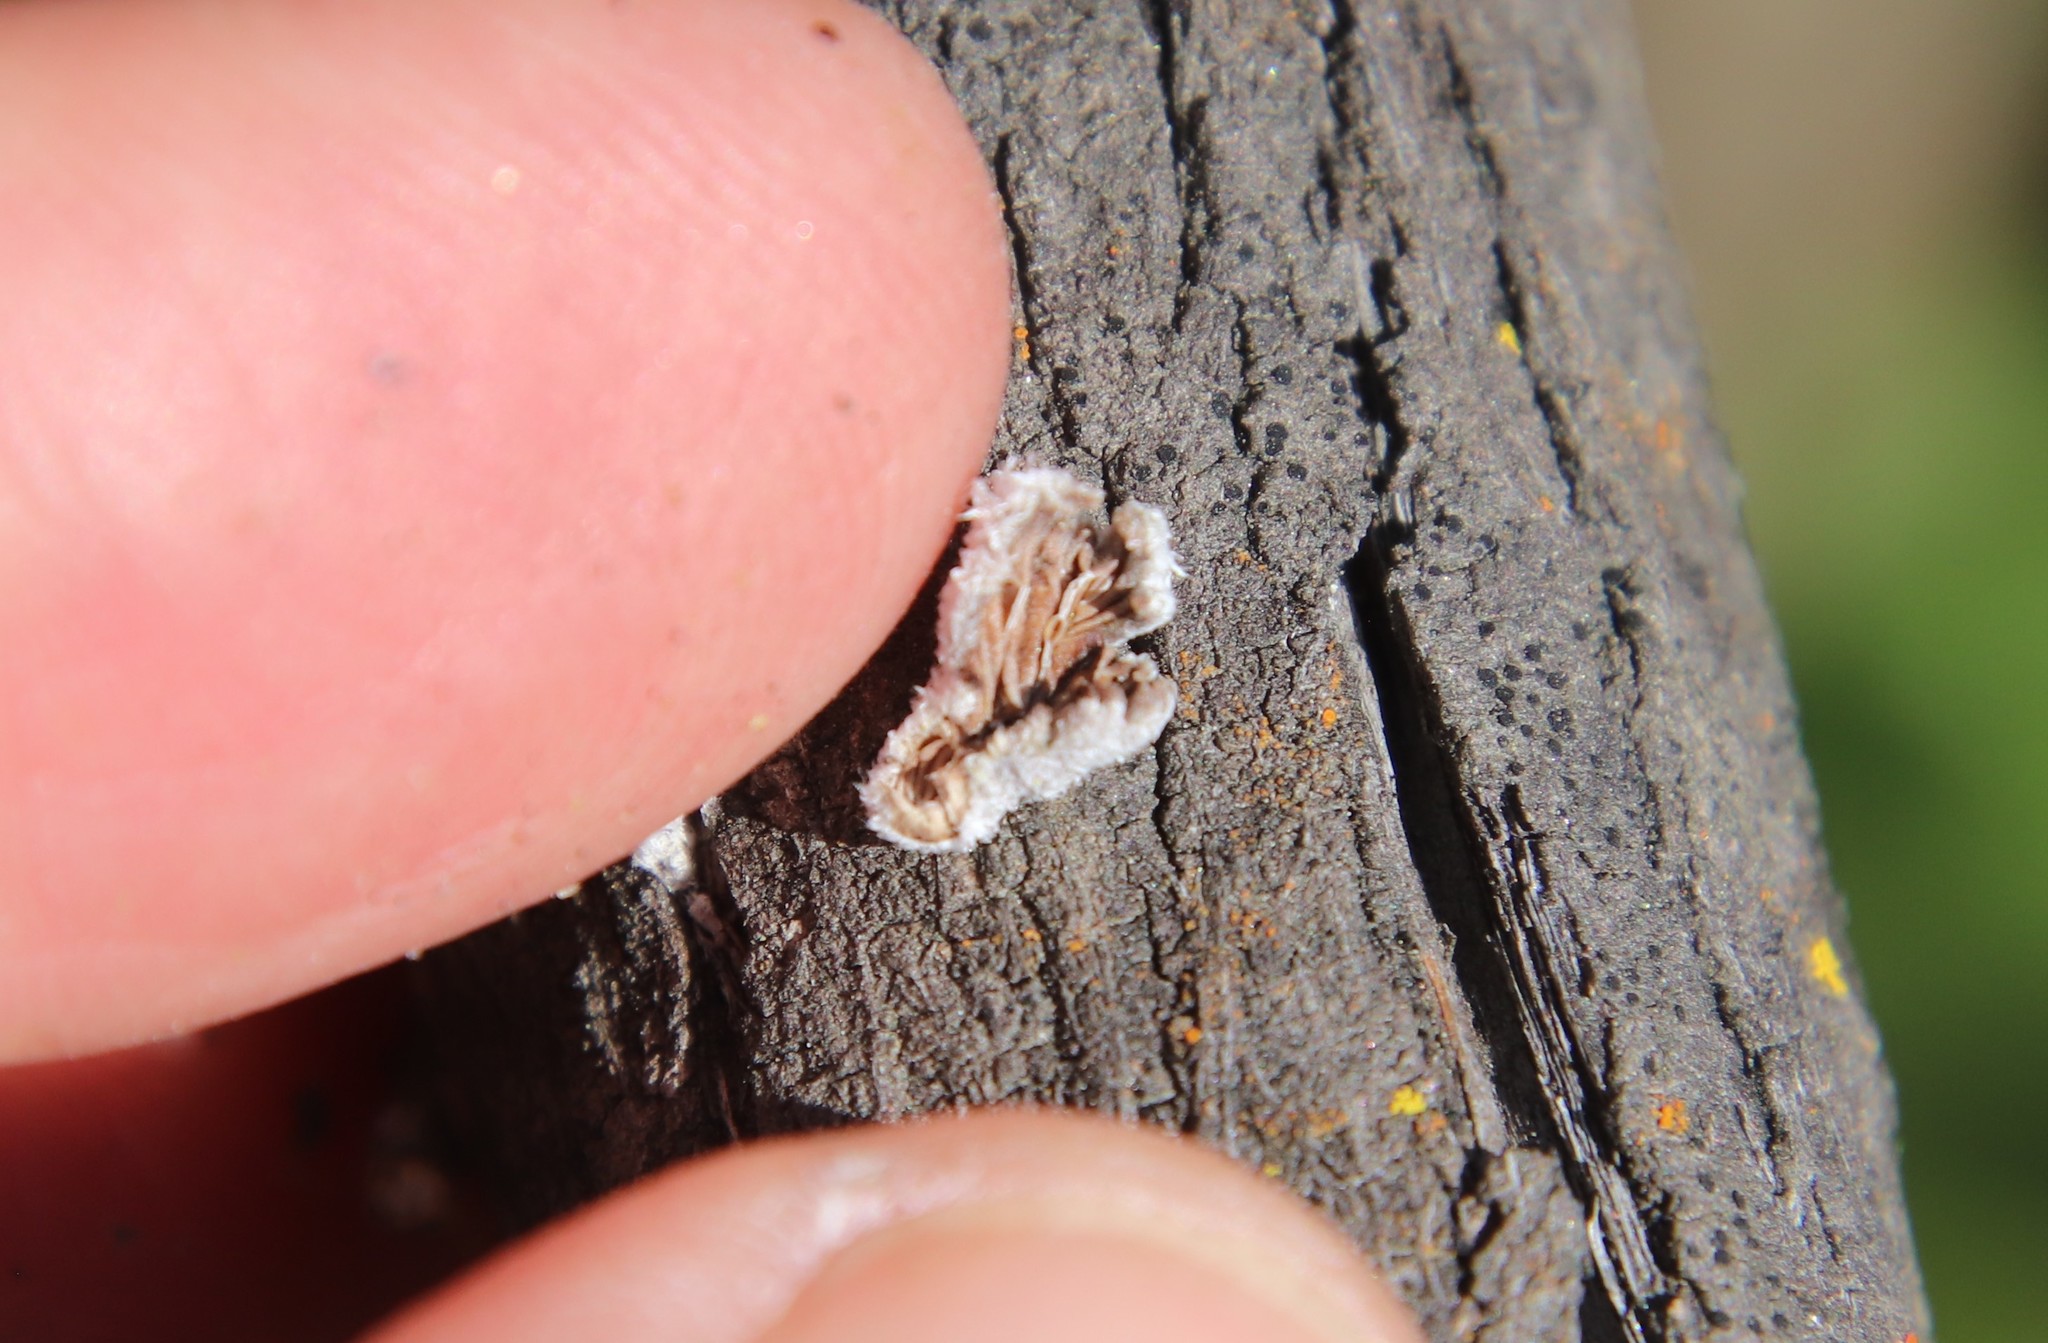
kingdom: Fungi
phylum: Basidiomycota
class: Agaricomycetes
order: Agaricales
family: Schizophyllaceae
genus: Schizophyllum
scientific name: Schizophyllum commune
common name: Common porecrust
